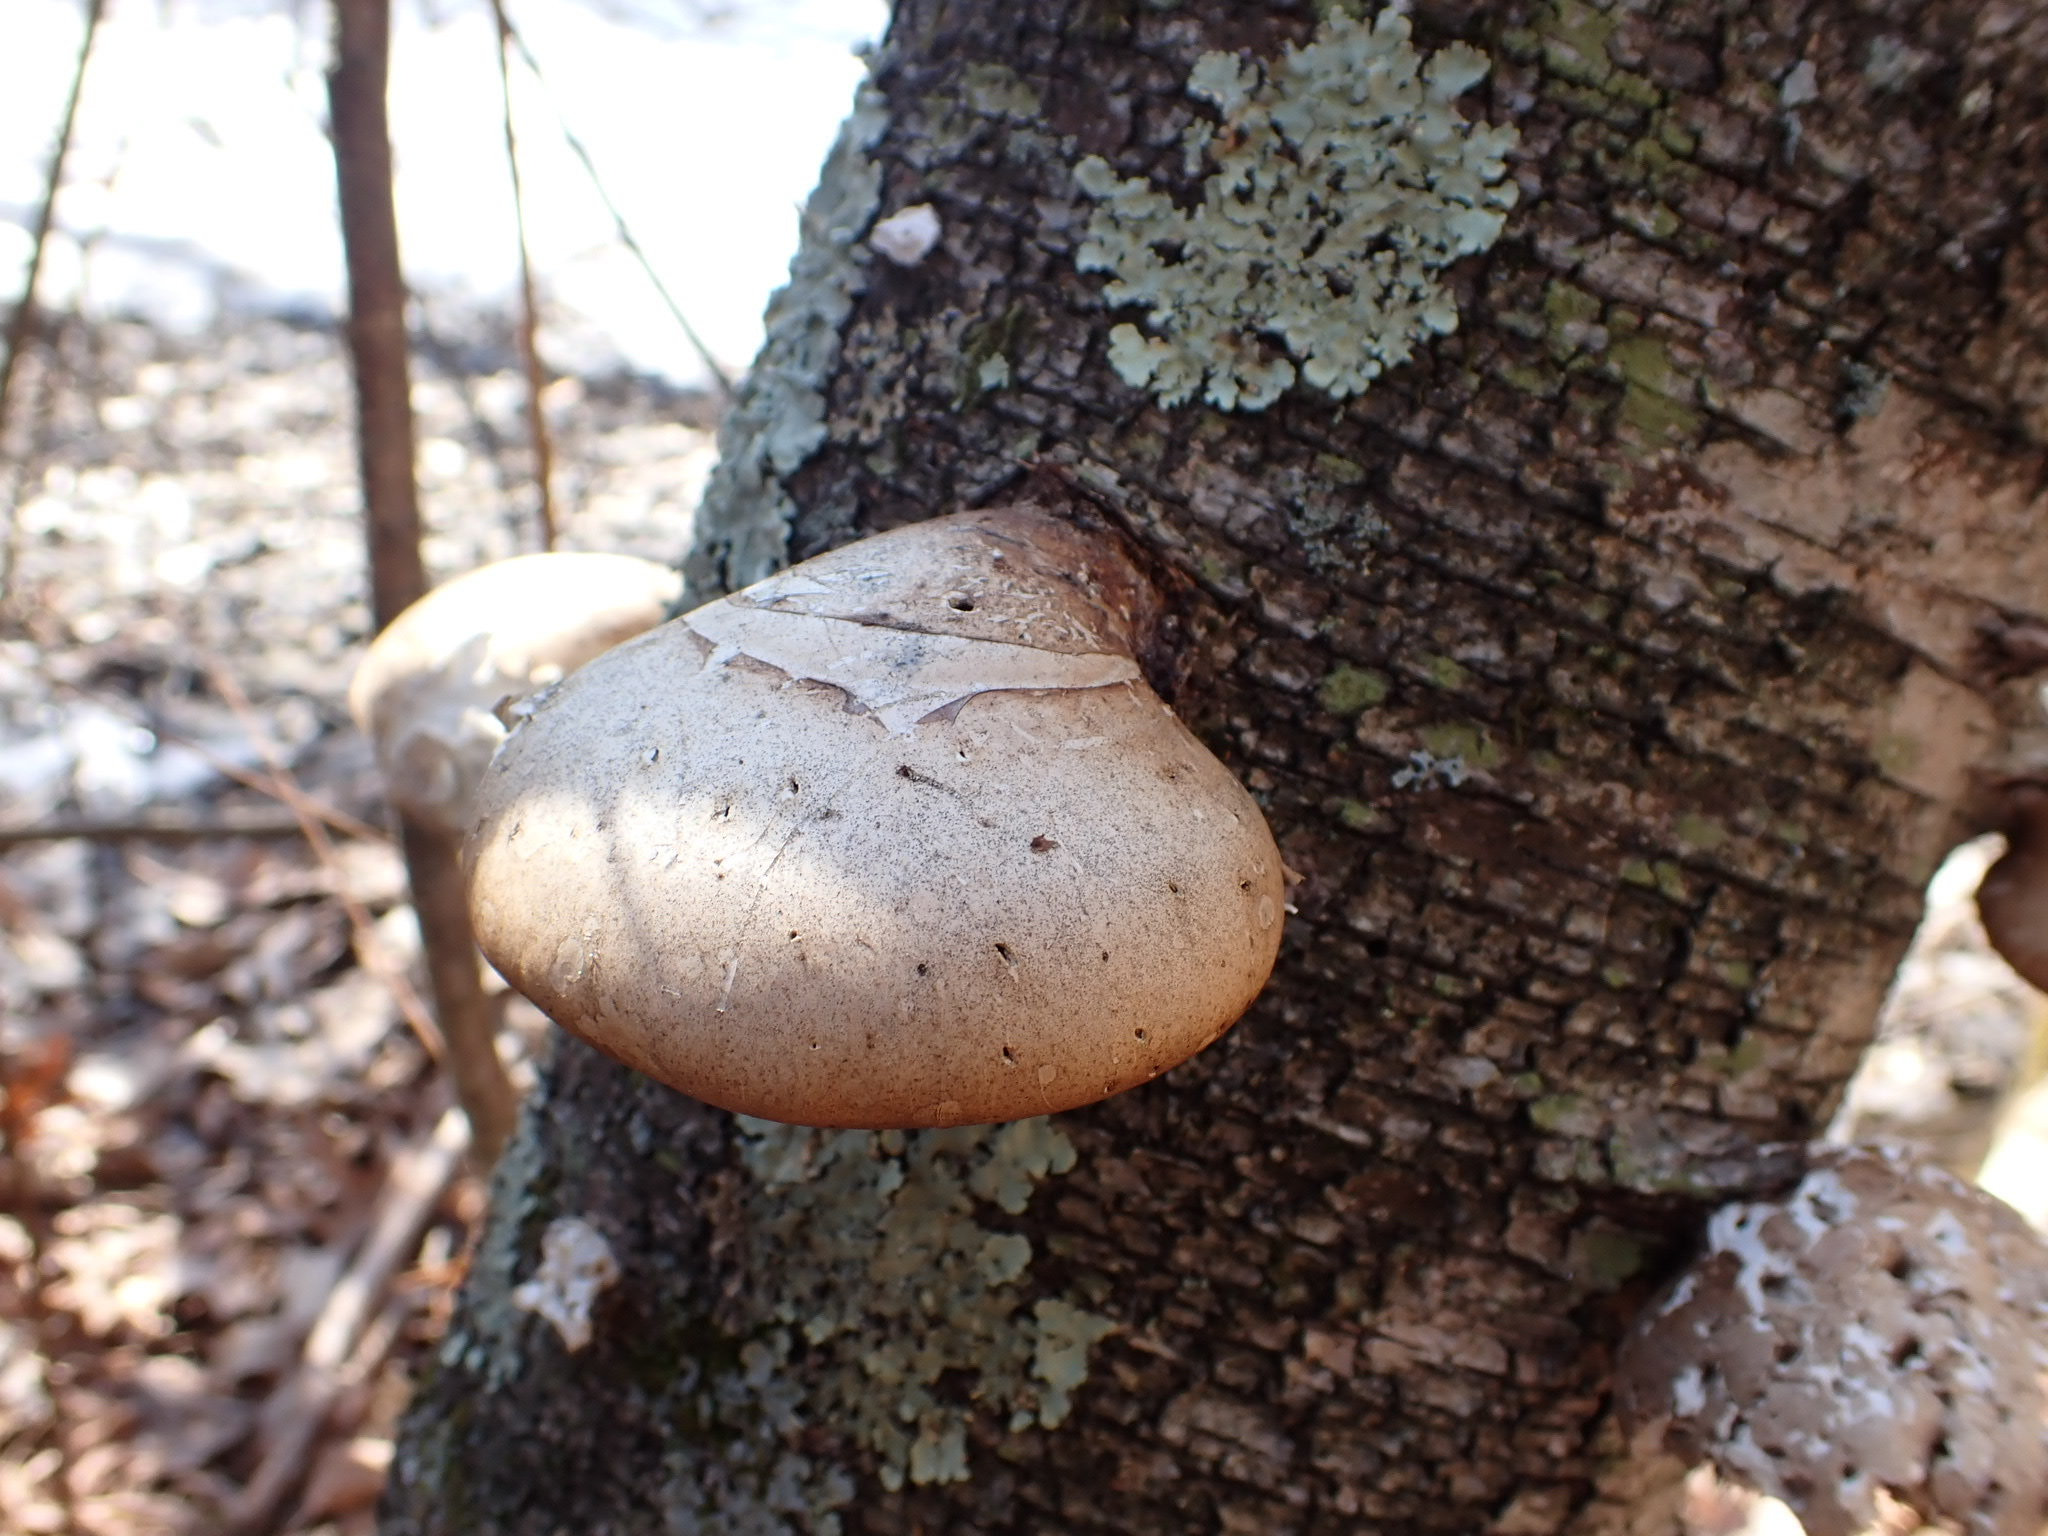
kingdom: Fungi
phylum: Basidiomycota
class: Agaricomycetes
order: Polyporales
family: Fomitopsidaceae
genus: Fomitopsis
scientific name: Fomitopsis betulina
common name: Birch polypore
